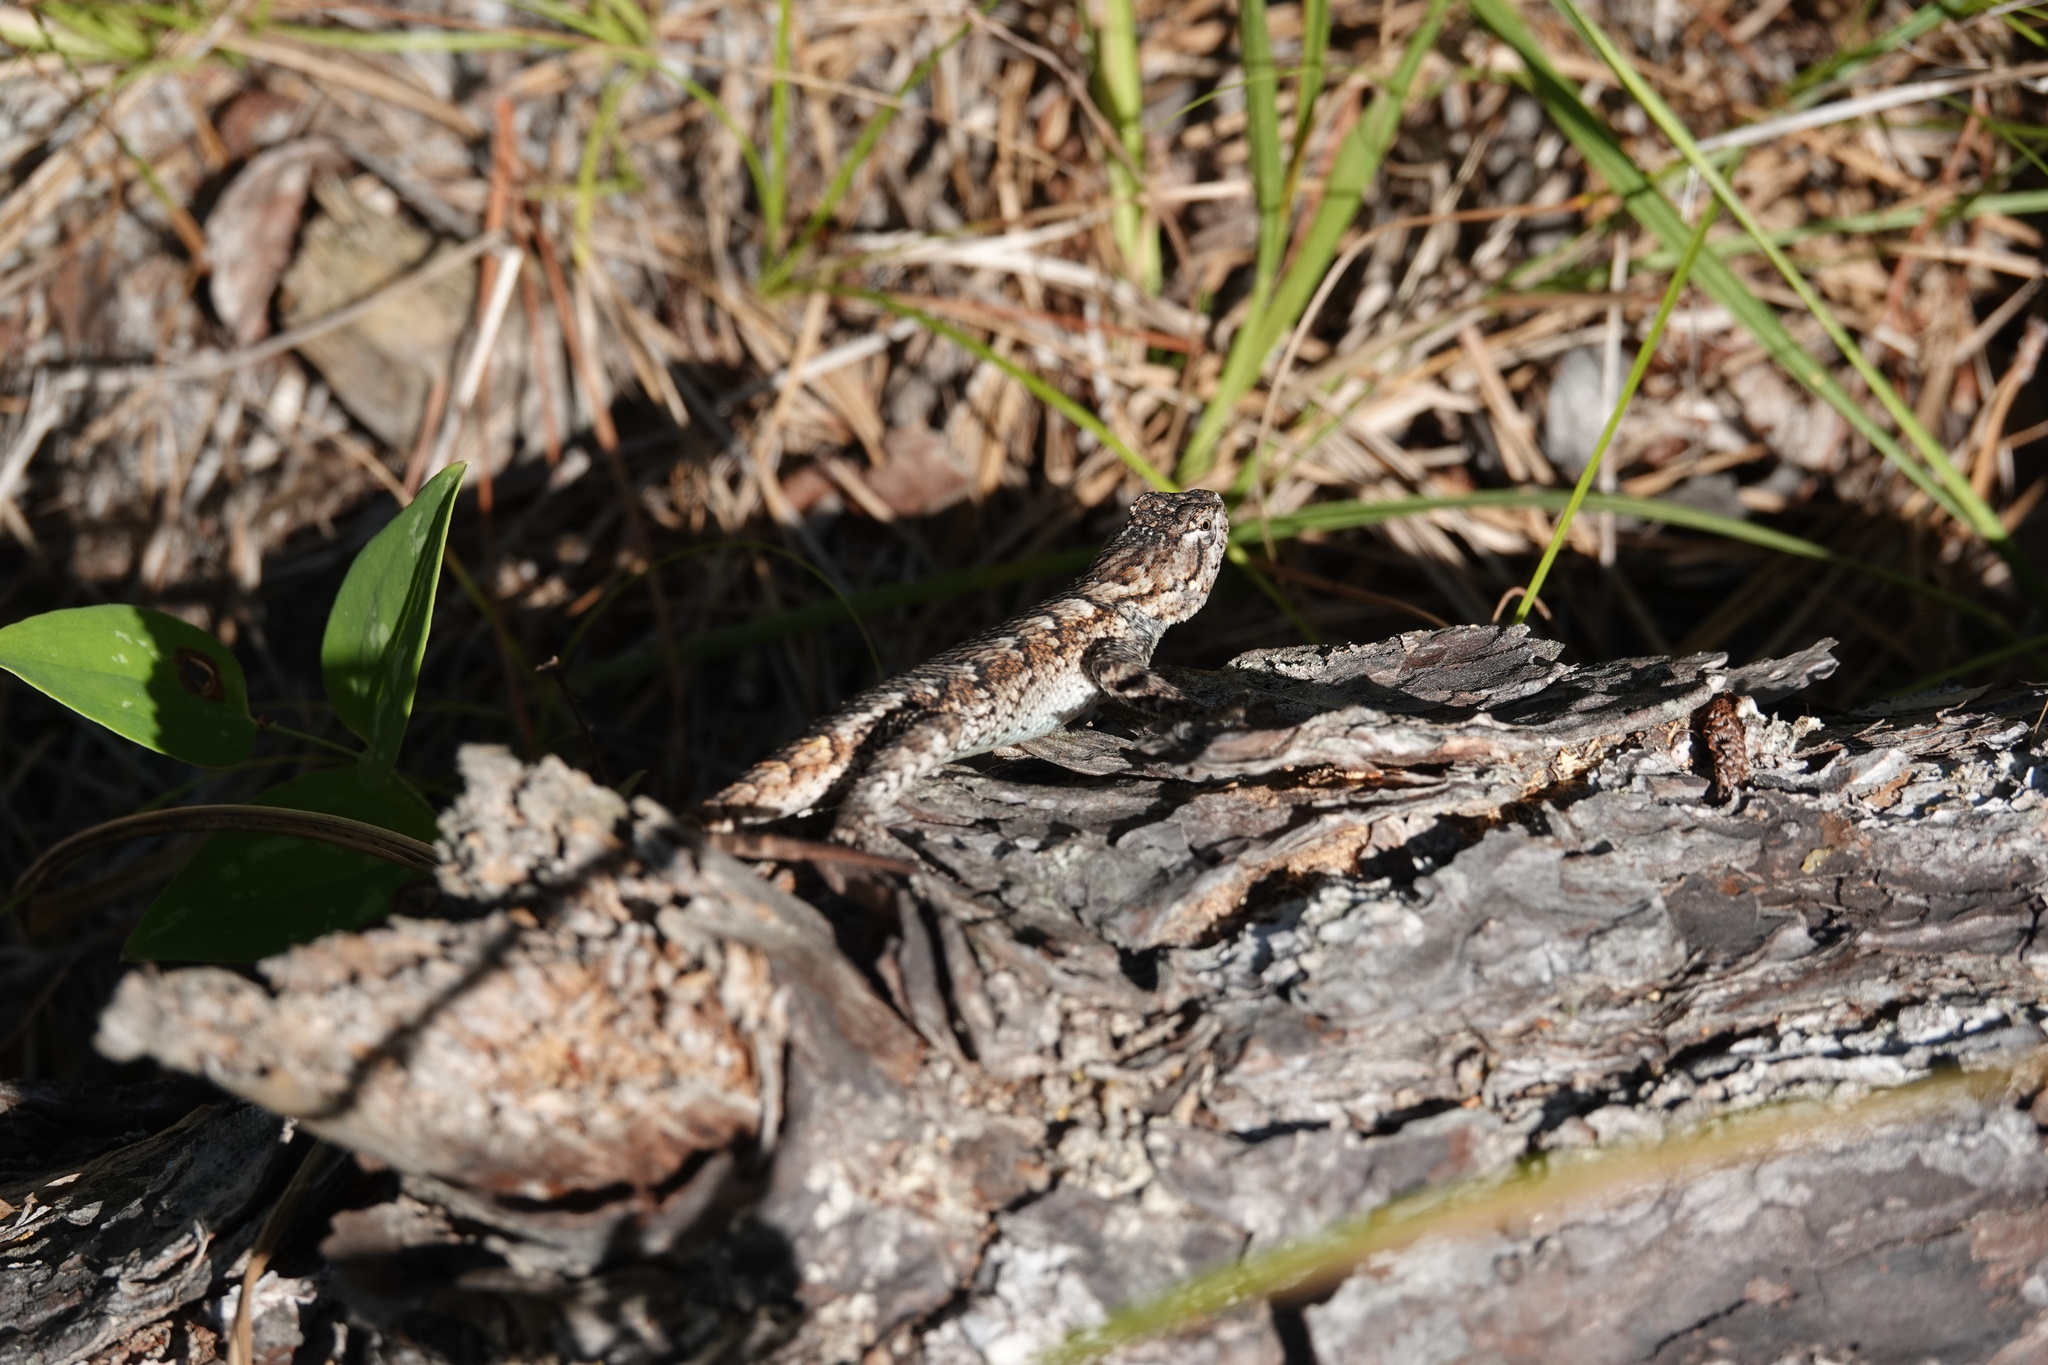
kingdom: Animalia
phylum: Chordata
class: Squamata
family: Phrynosomatidae
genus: Sceloporus
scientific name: Sceloporus undulatus
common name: Eastern fence lizard
